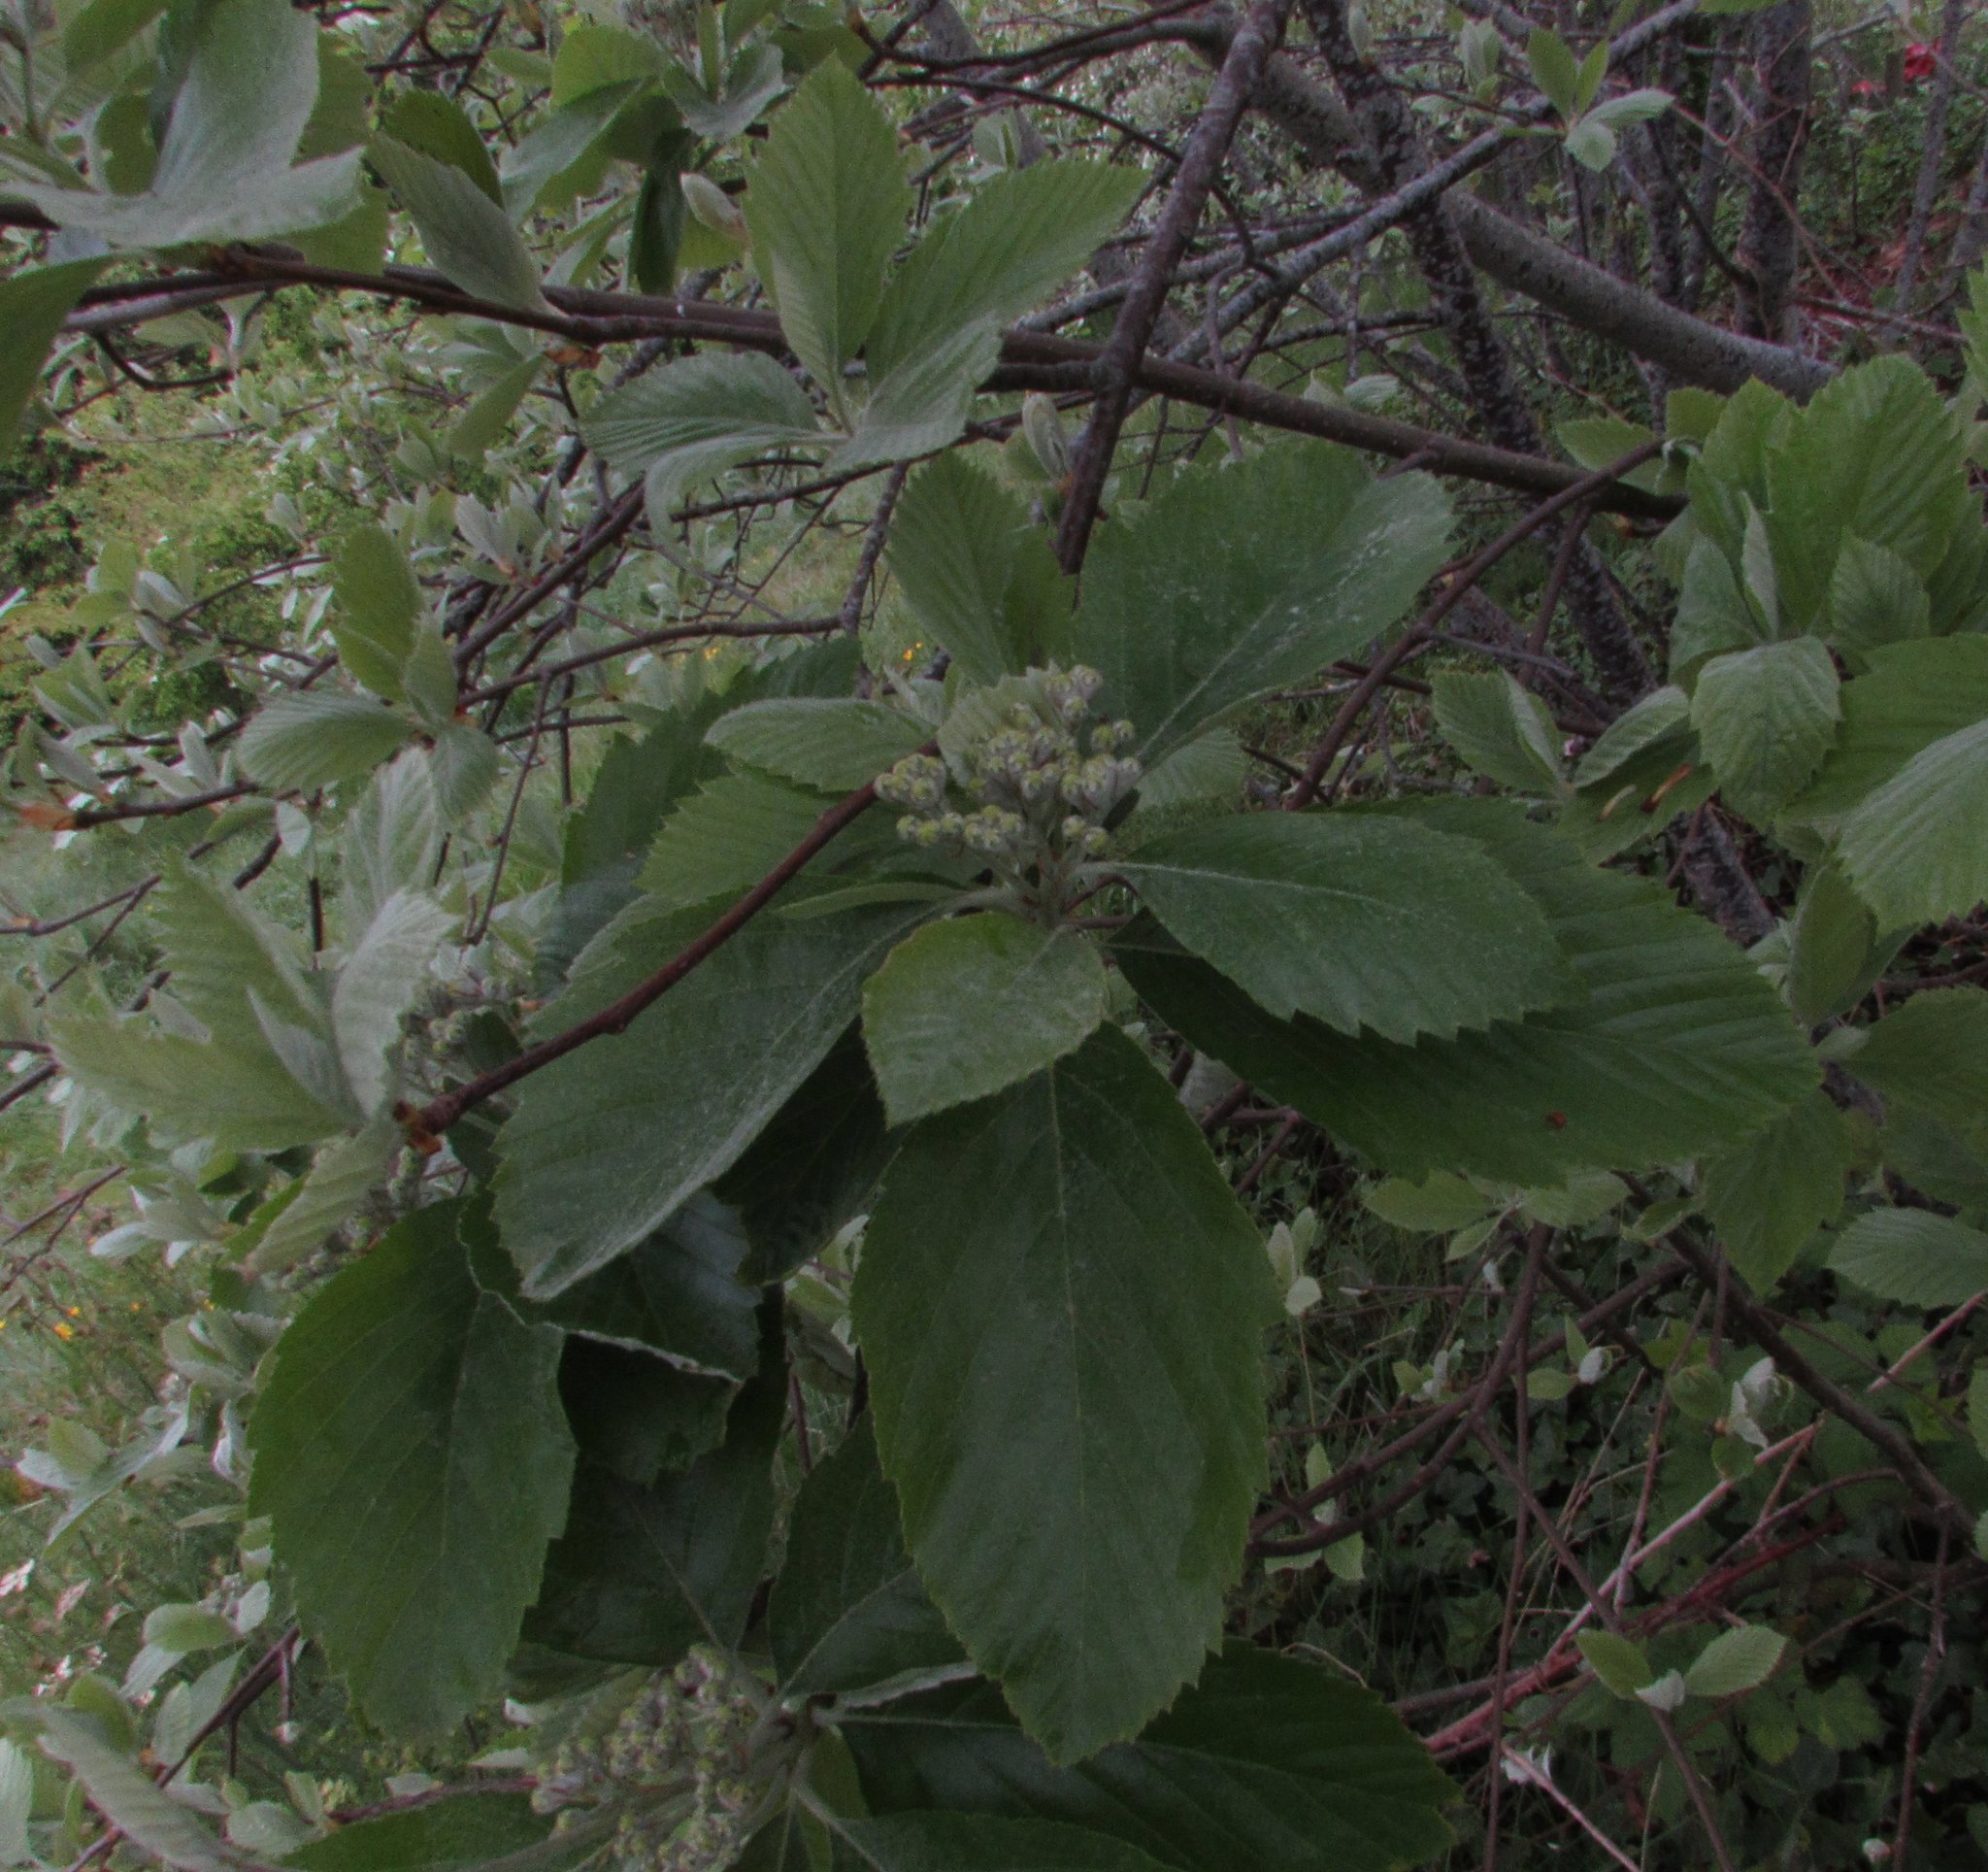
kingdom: Plantae
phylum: Tracheophyta
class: Magnoliopsida
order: Rosales
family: Rosaceae
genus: Karpatiosorbus
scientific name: Karpatiosorbus bristoliensis
